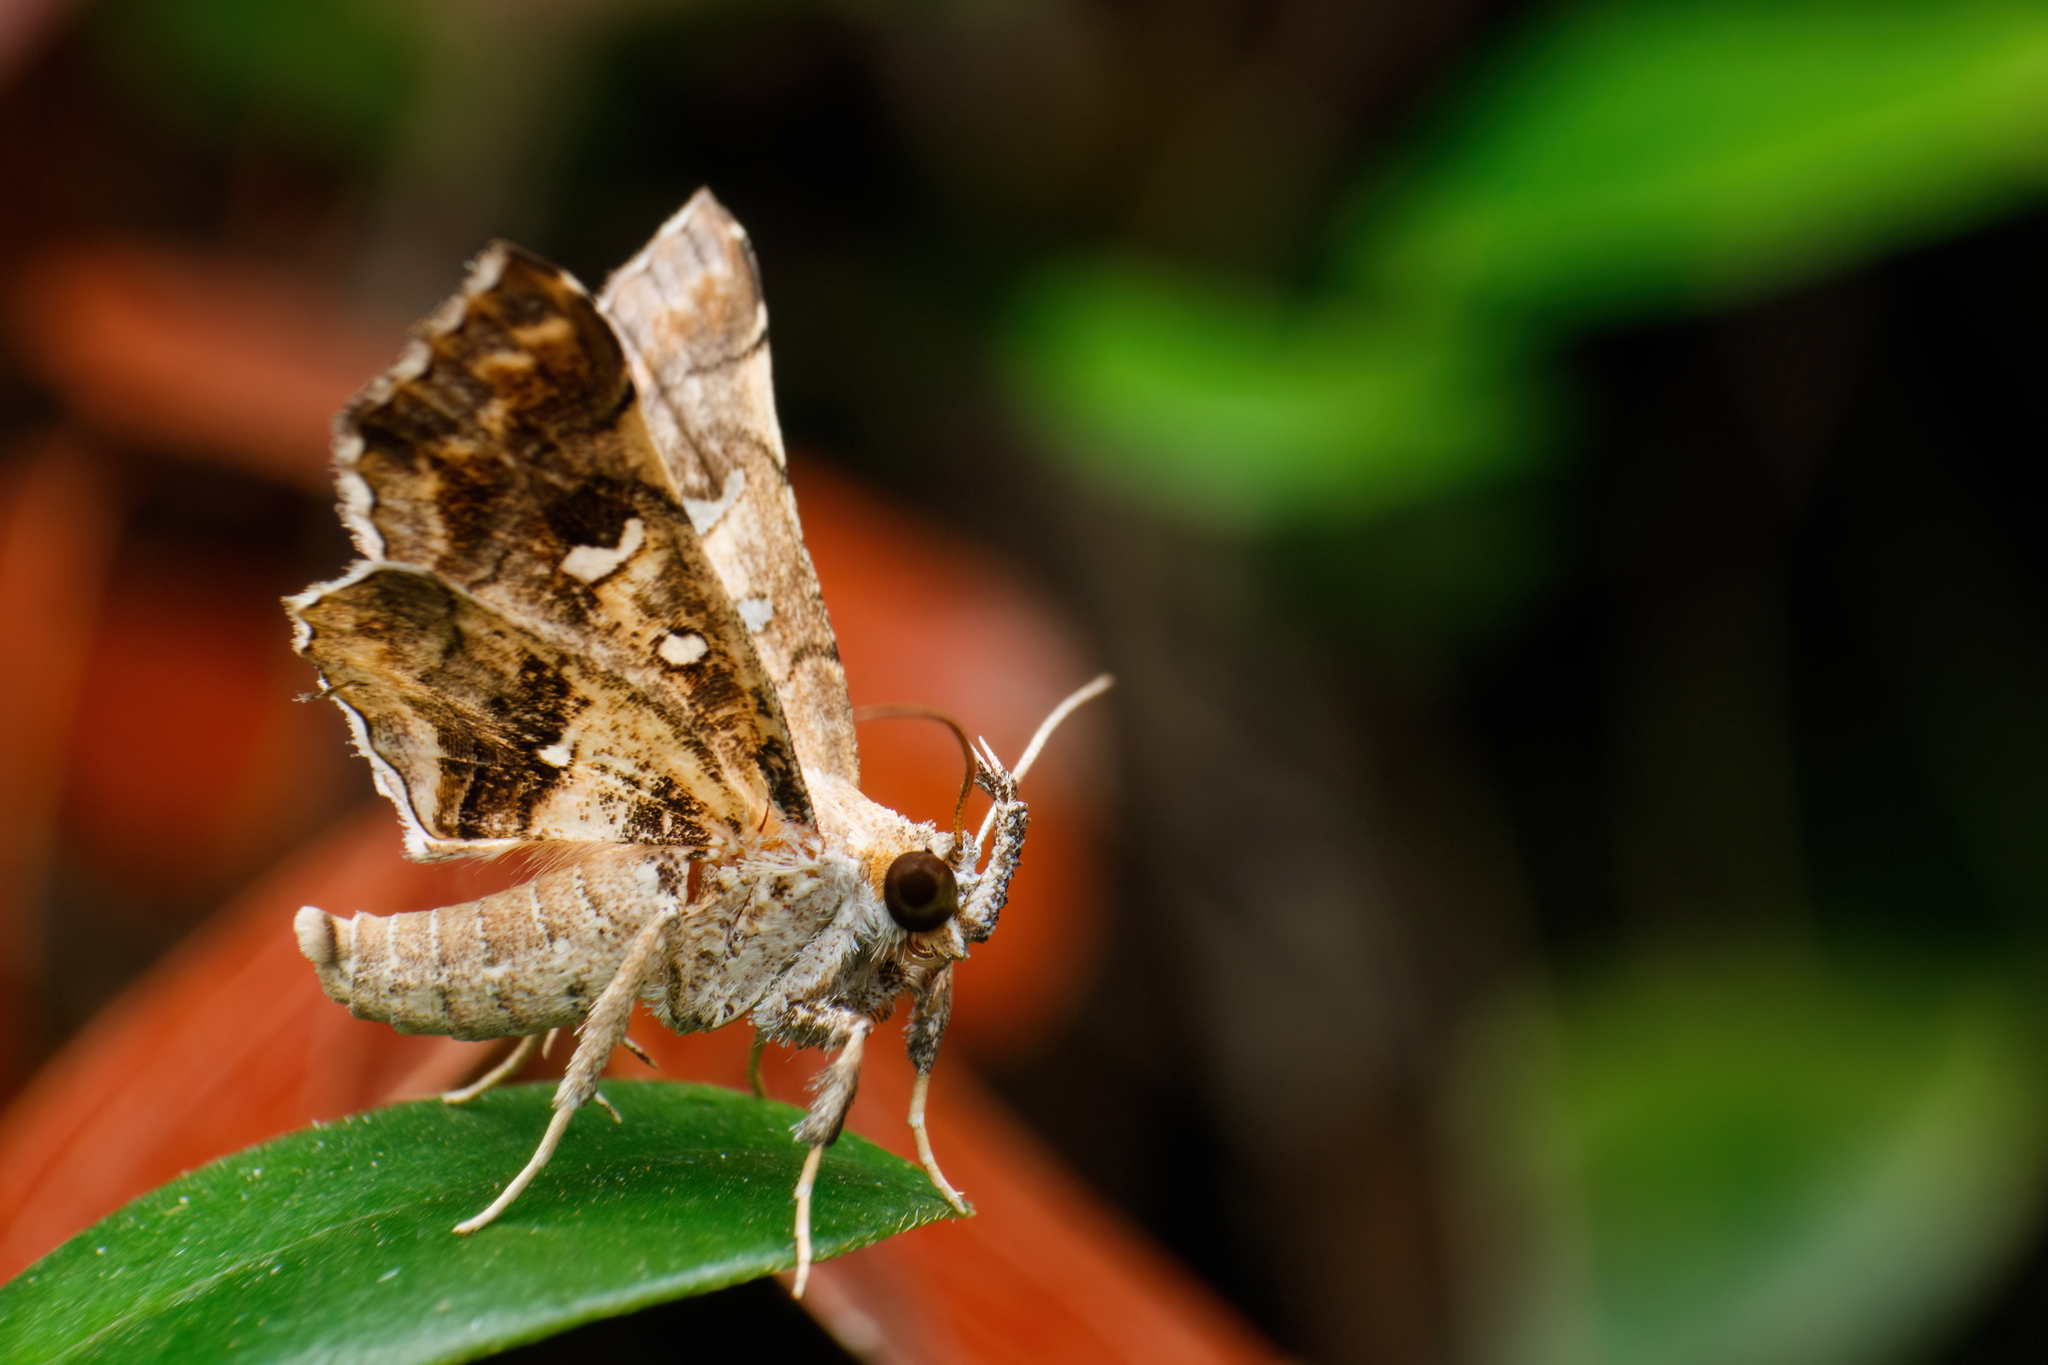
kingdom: Animalia
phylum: Arthropoda
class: Insecta
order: Lepidoptera
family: Erebidae
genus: Egnasia
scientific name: Egnasia ephyrodalis
